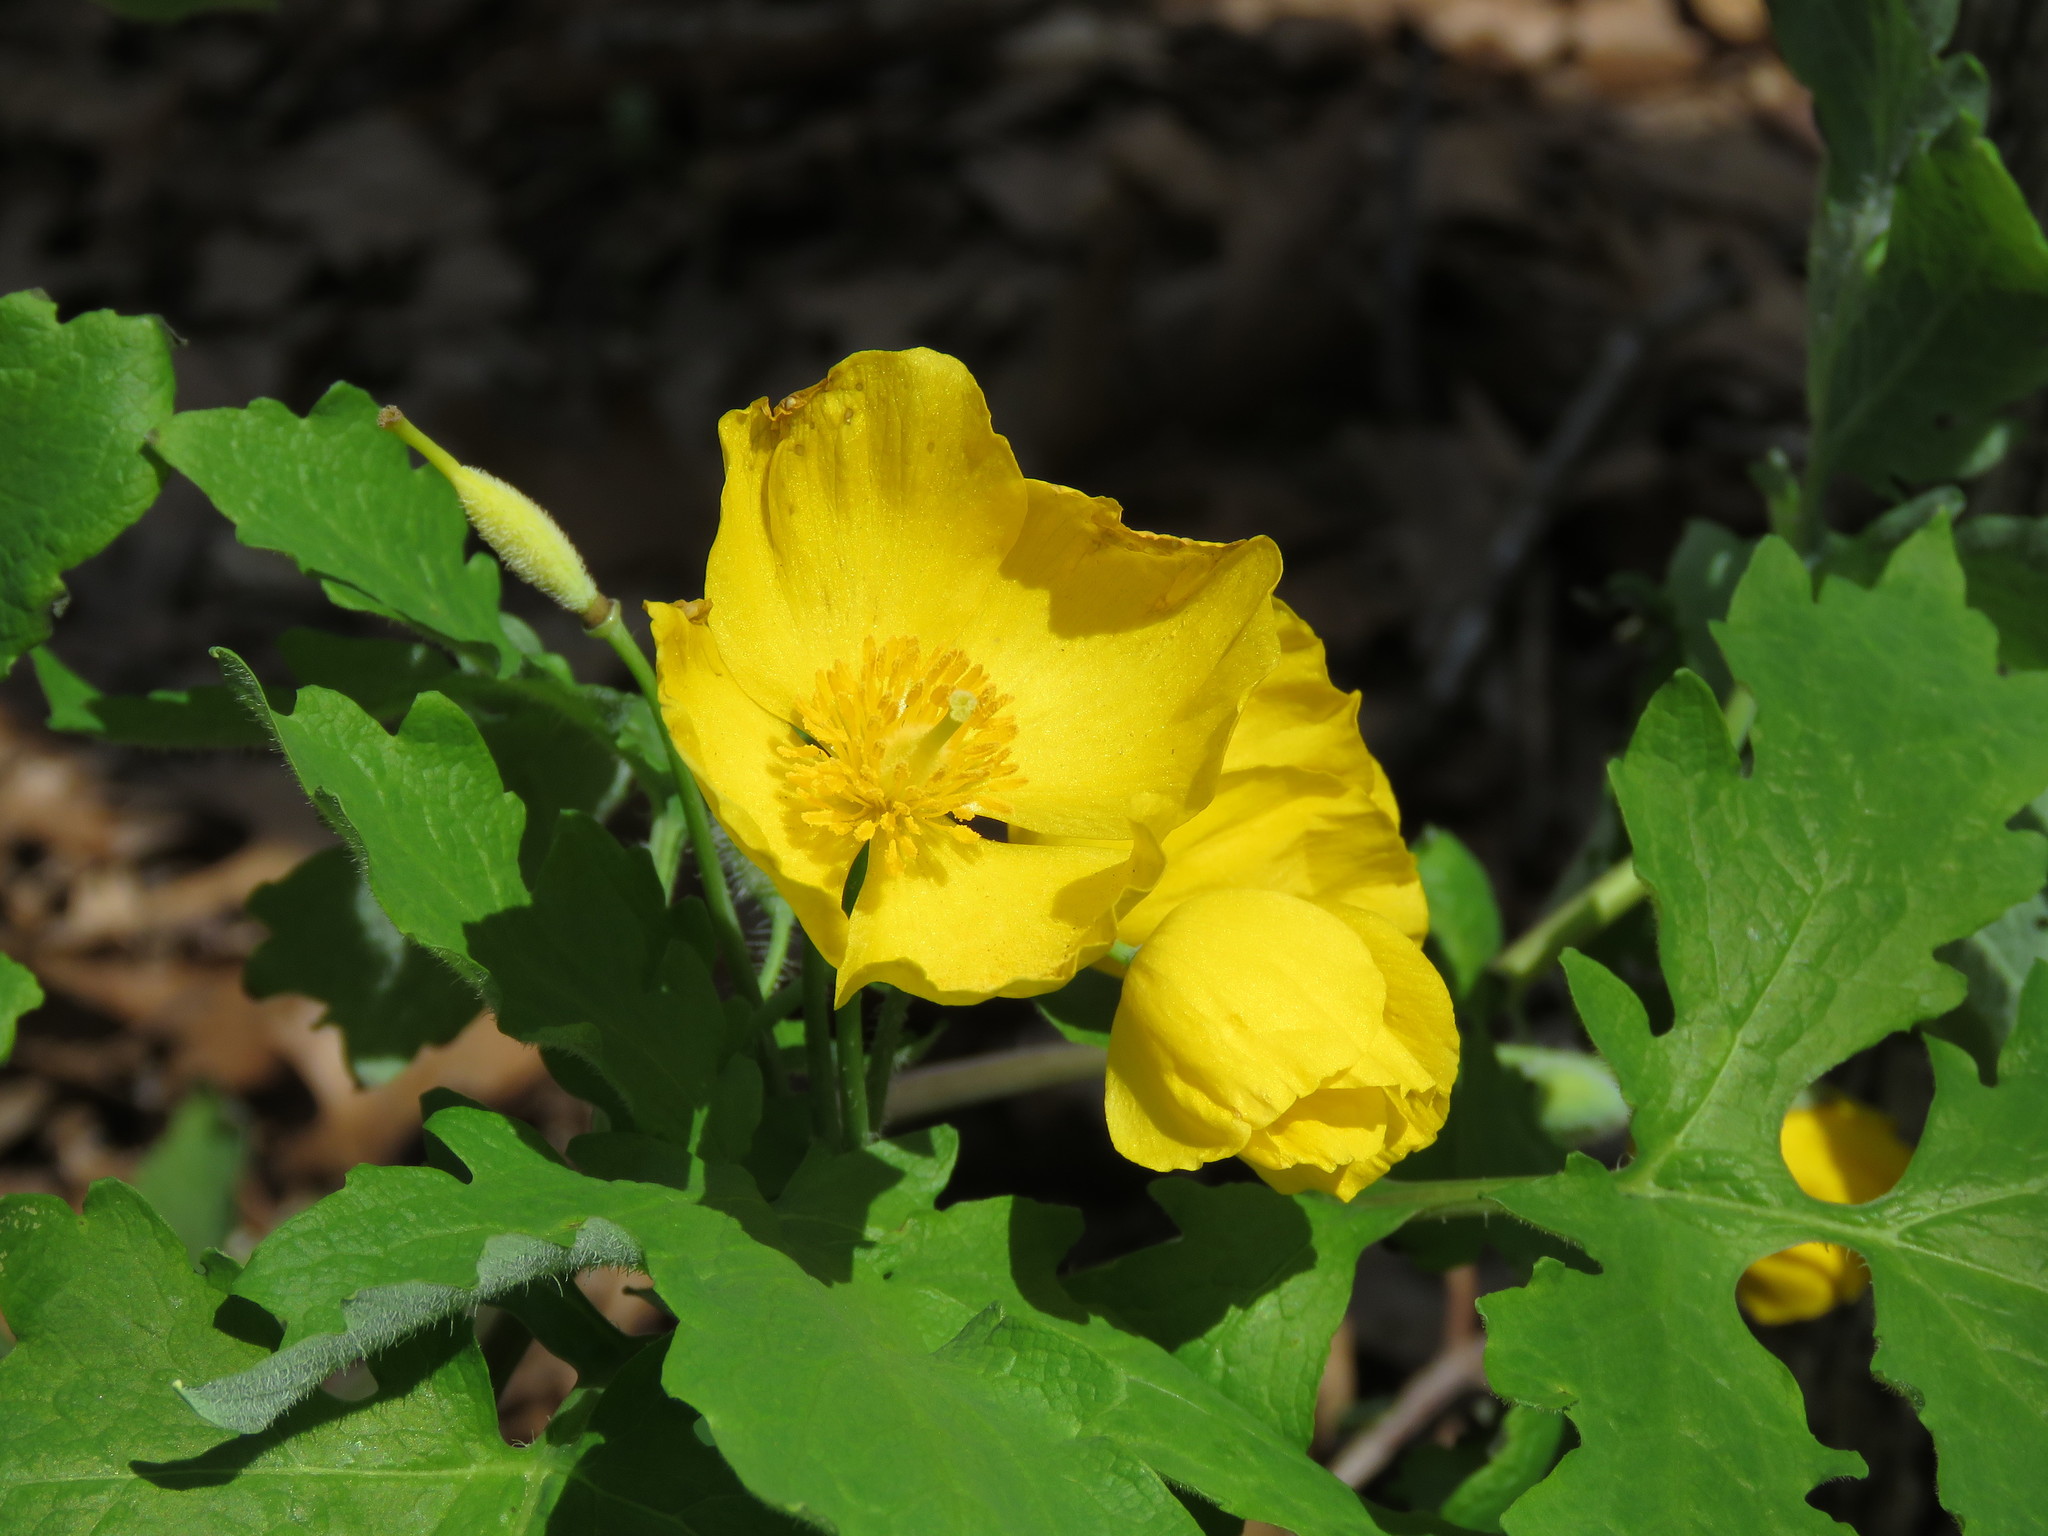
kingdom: Plantae
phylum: Tracheophyta
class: Magnoliopsida
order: Ranunculales
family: Papaveraceae
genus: Stylophorum
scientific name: Stylophorum diphyllum
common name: Celandine poppy
